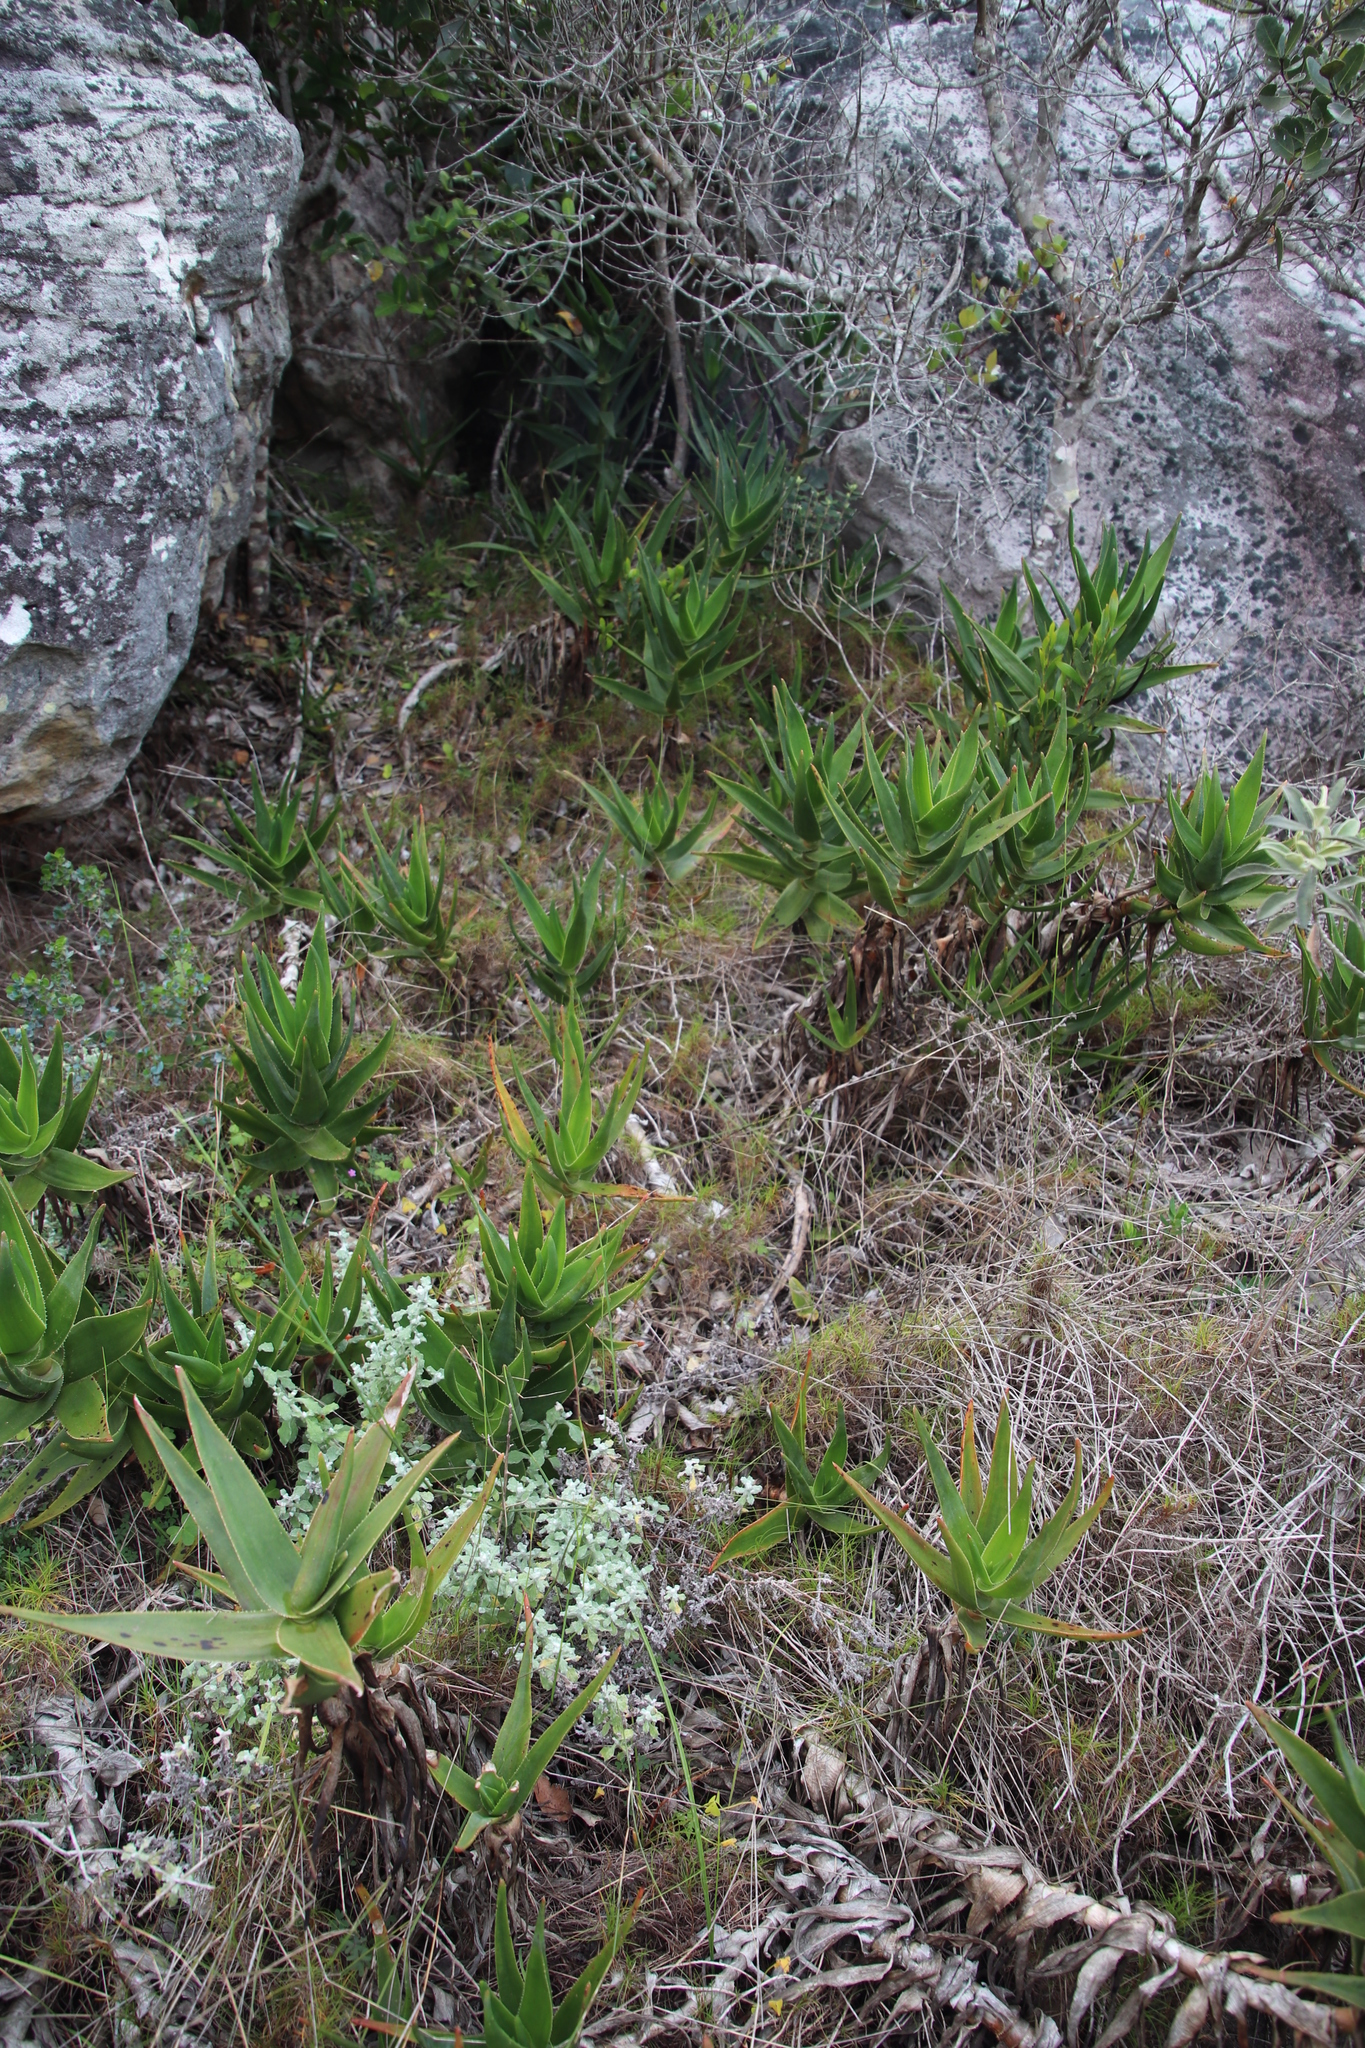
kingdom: Plantae
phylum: Tracheophyta
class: Liliopsida
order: Asparagales
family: Asphodelaceae
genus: Aloiampelos
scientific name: Aloiampelos commixta
